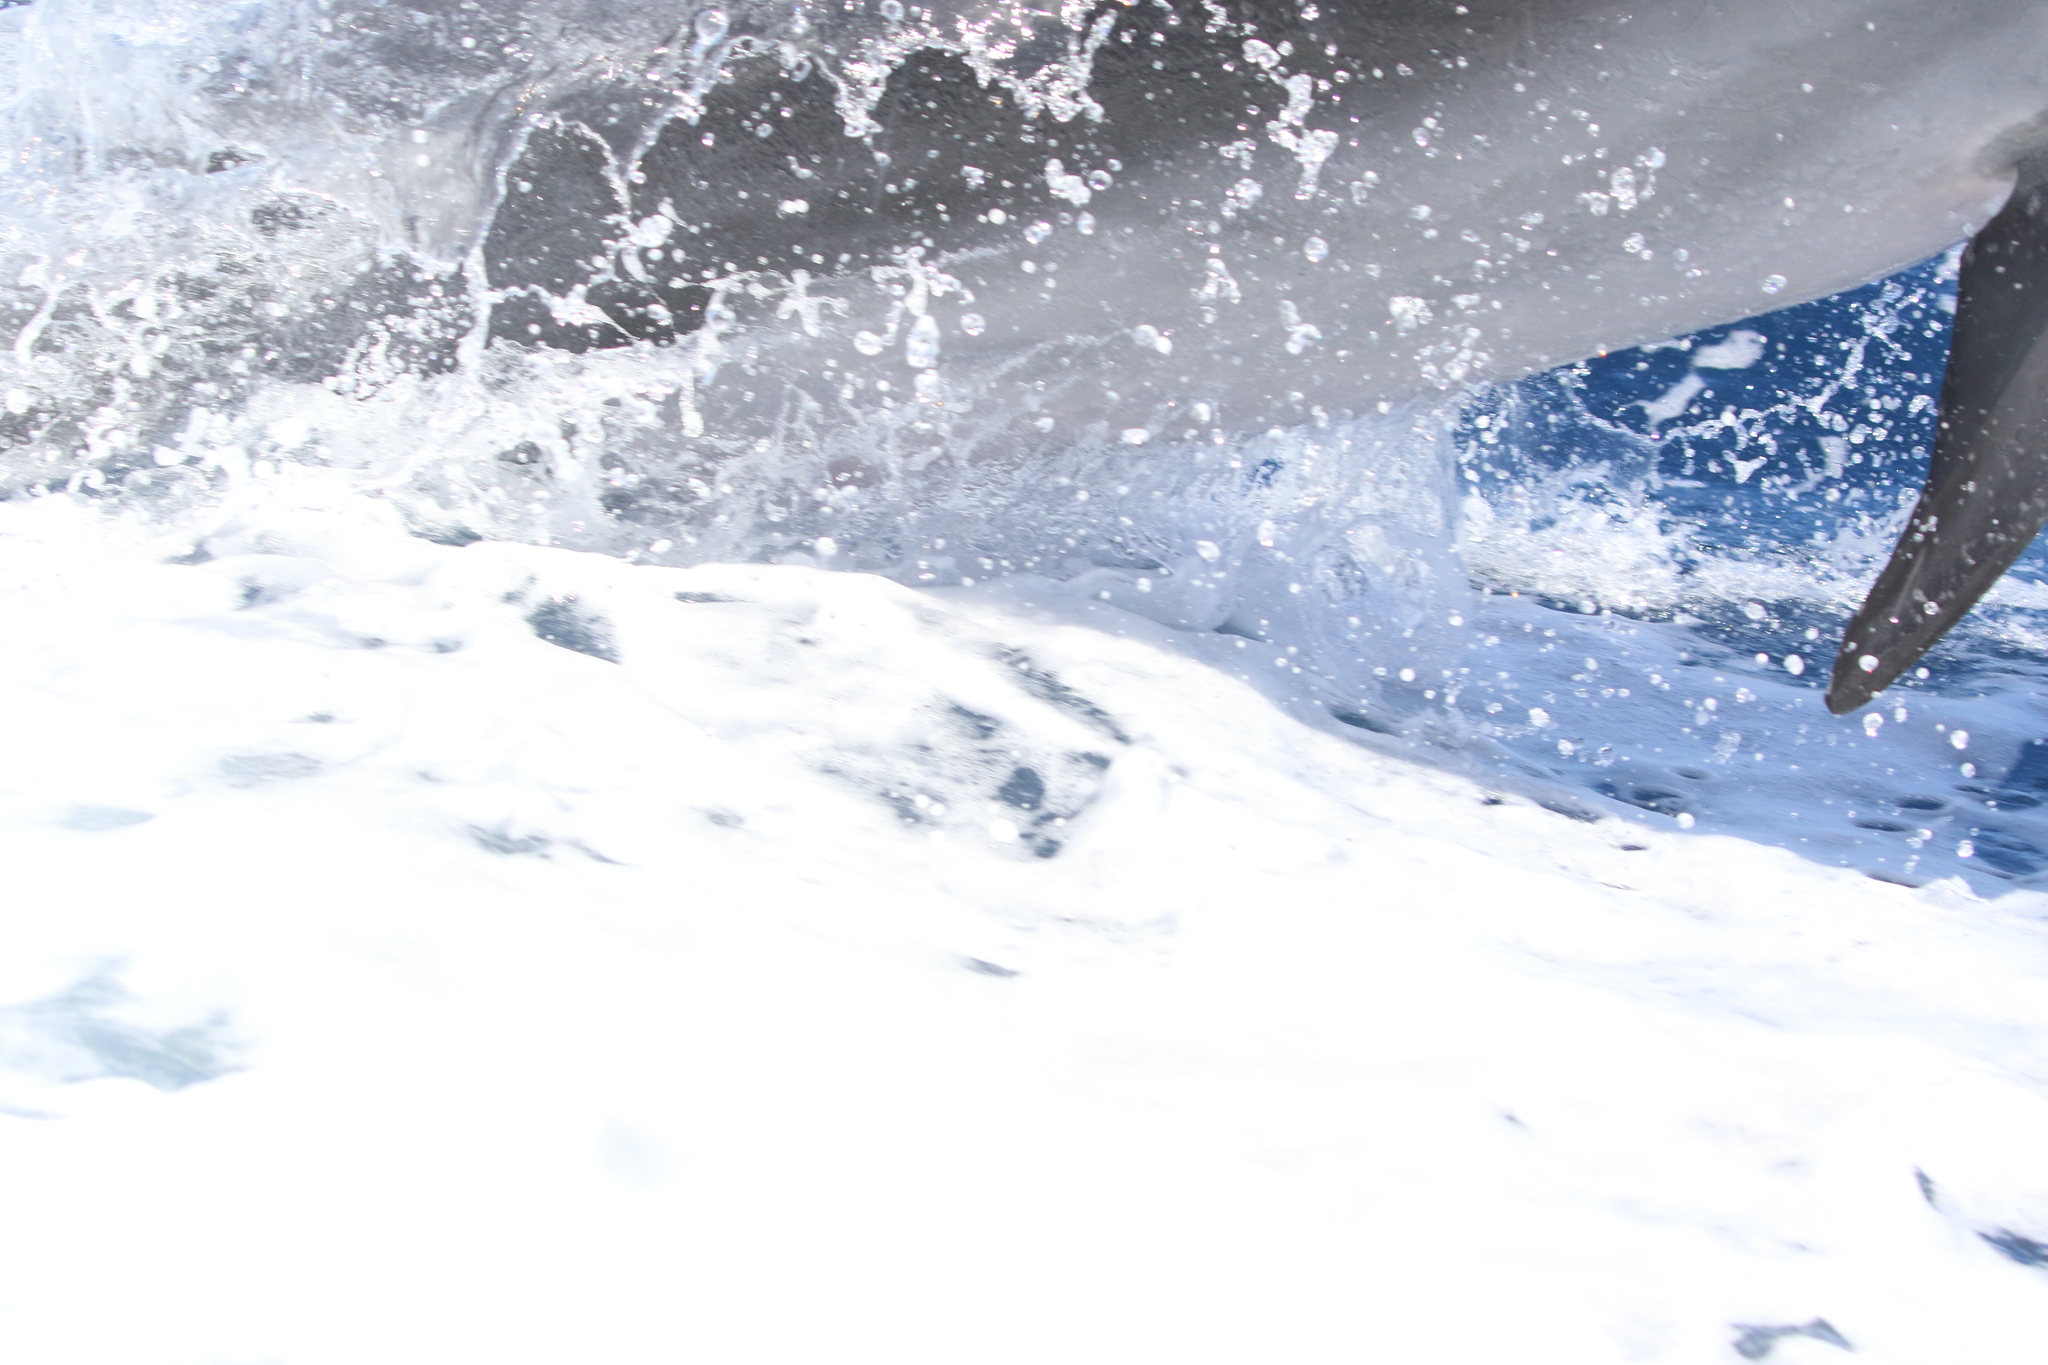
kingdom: Animalia
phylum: Chordata
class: Mammalia
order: Cetacea
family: Delphinidae
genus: Tursiops
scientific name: Tursiops truncatus
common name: Bottlenose dolphin
